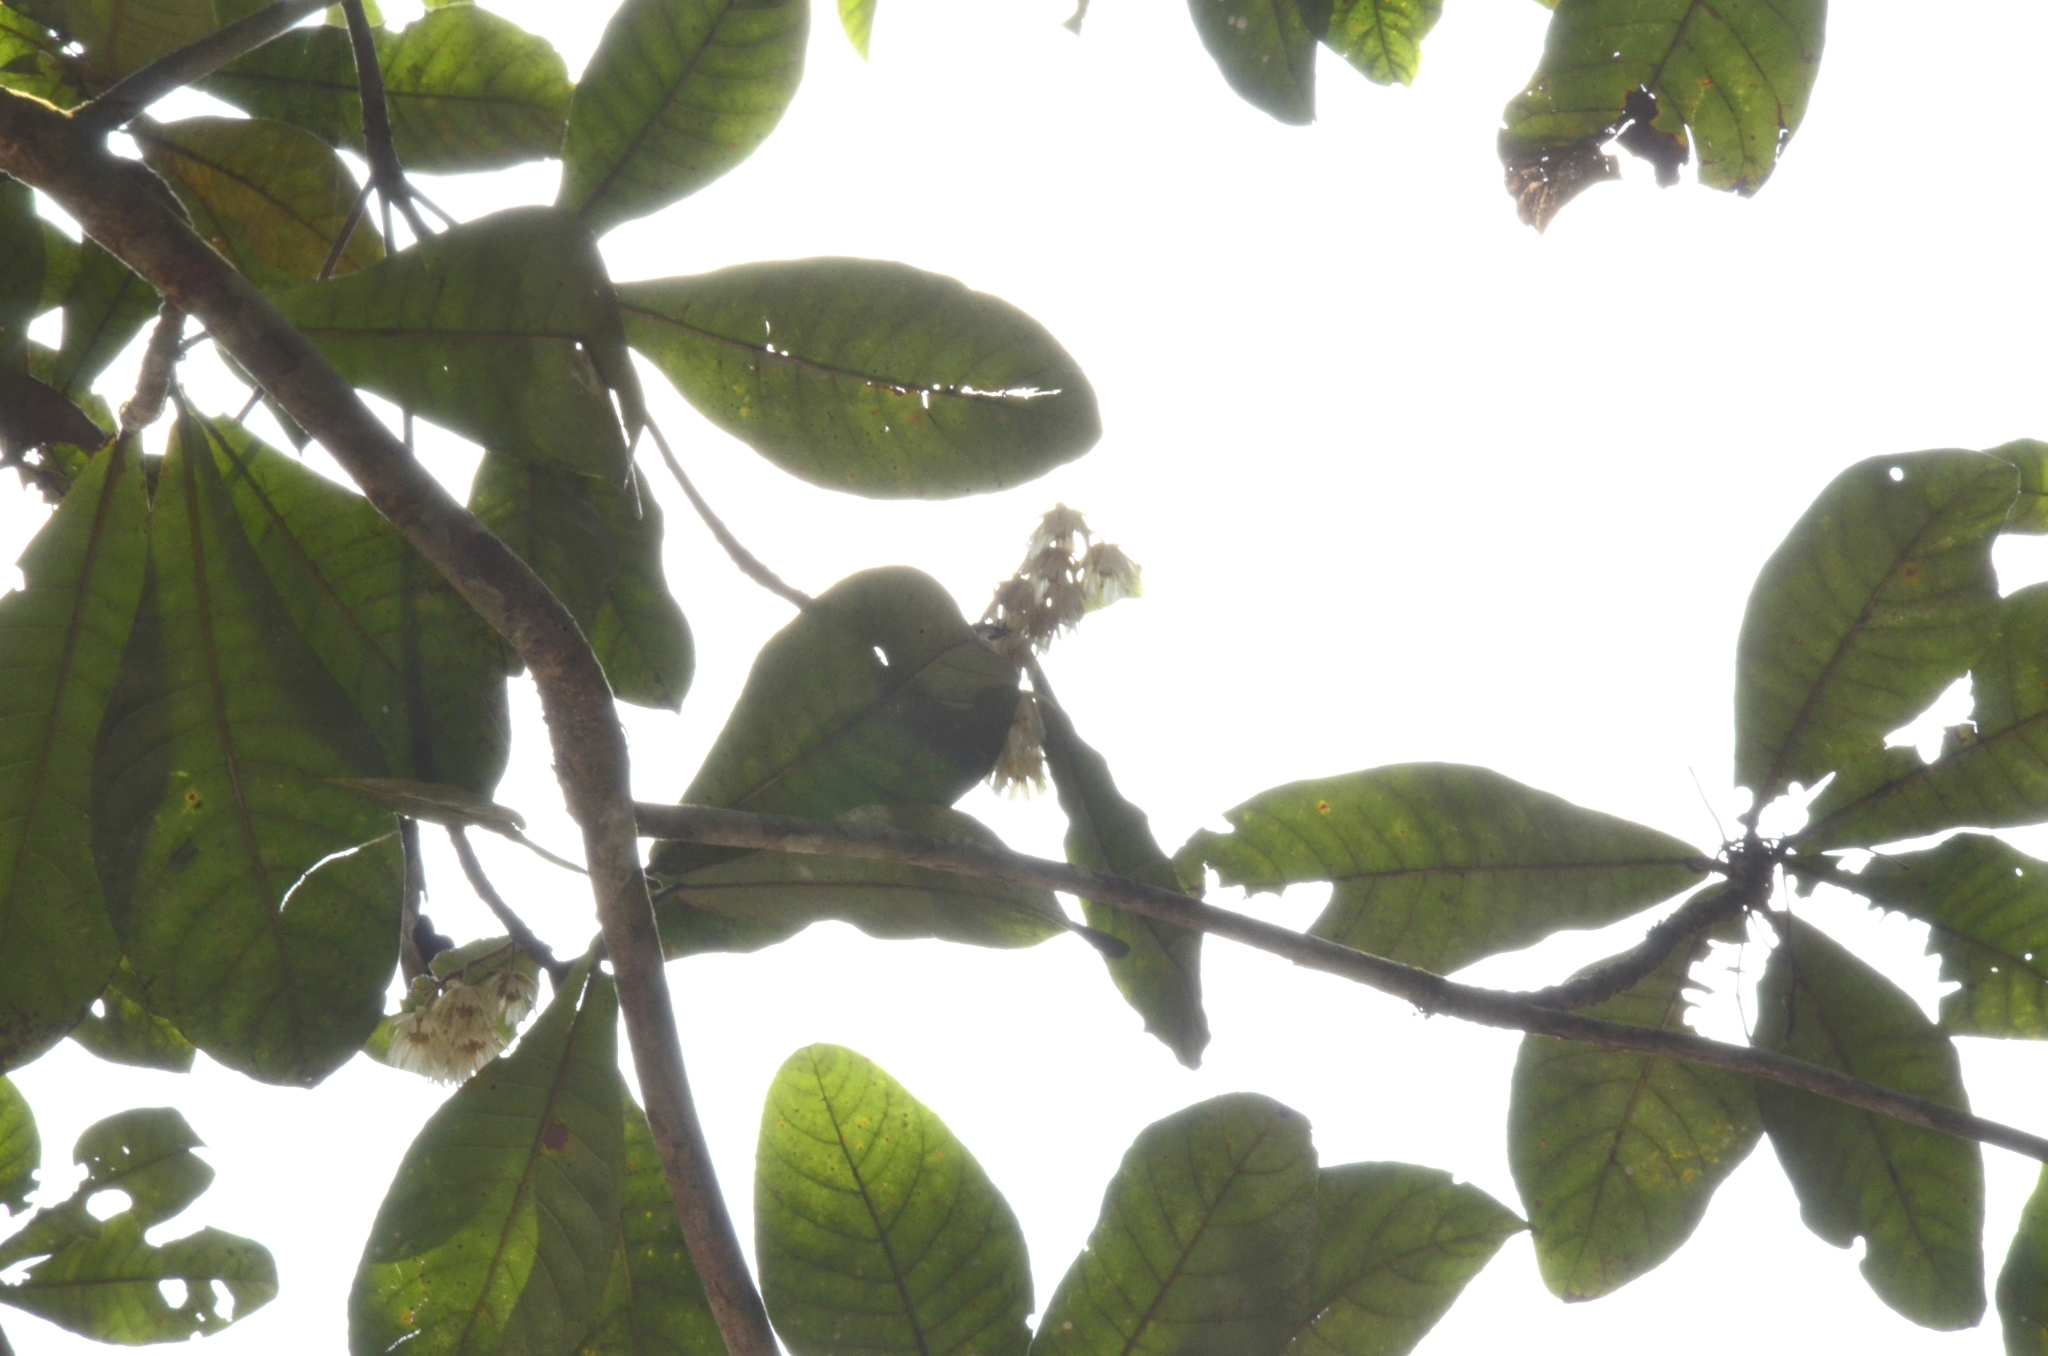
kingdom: Plantae
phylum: Tracheophyta
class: Magnoliopsida
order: Oxalidales
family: Elaeocarpaceae
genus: Elaeocarpus
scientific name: Elaeocarpus tuberculatus
